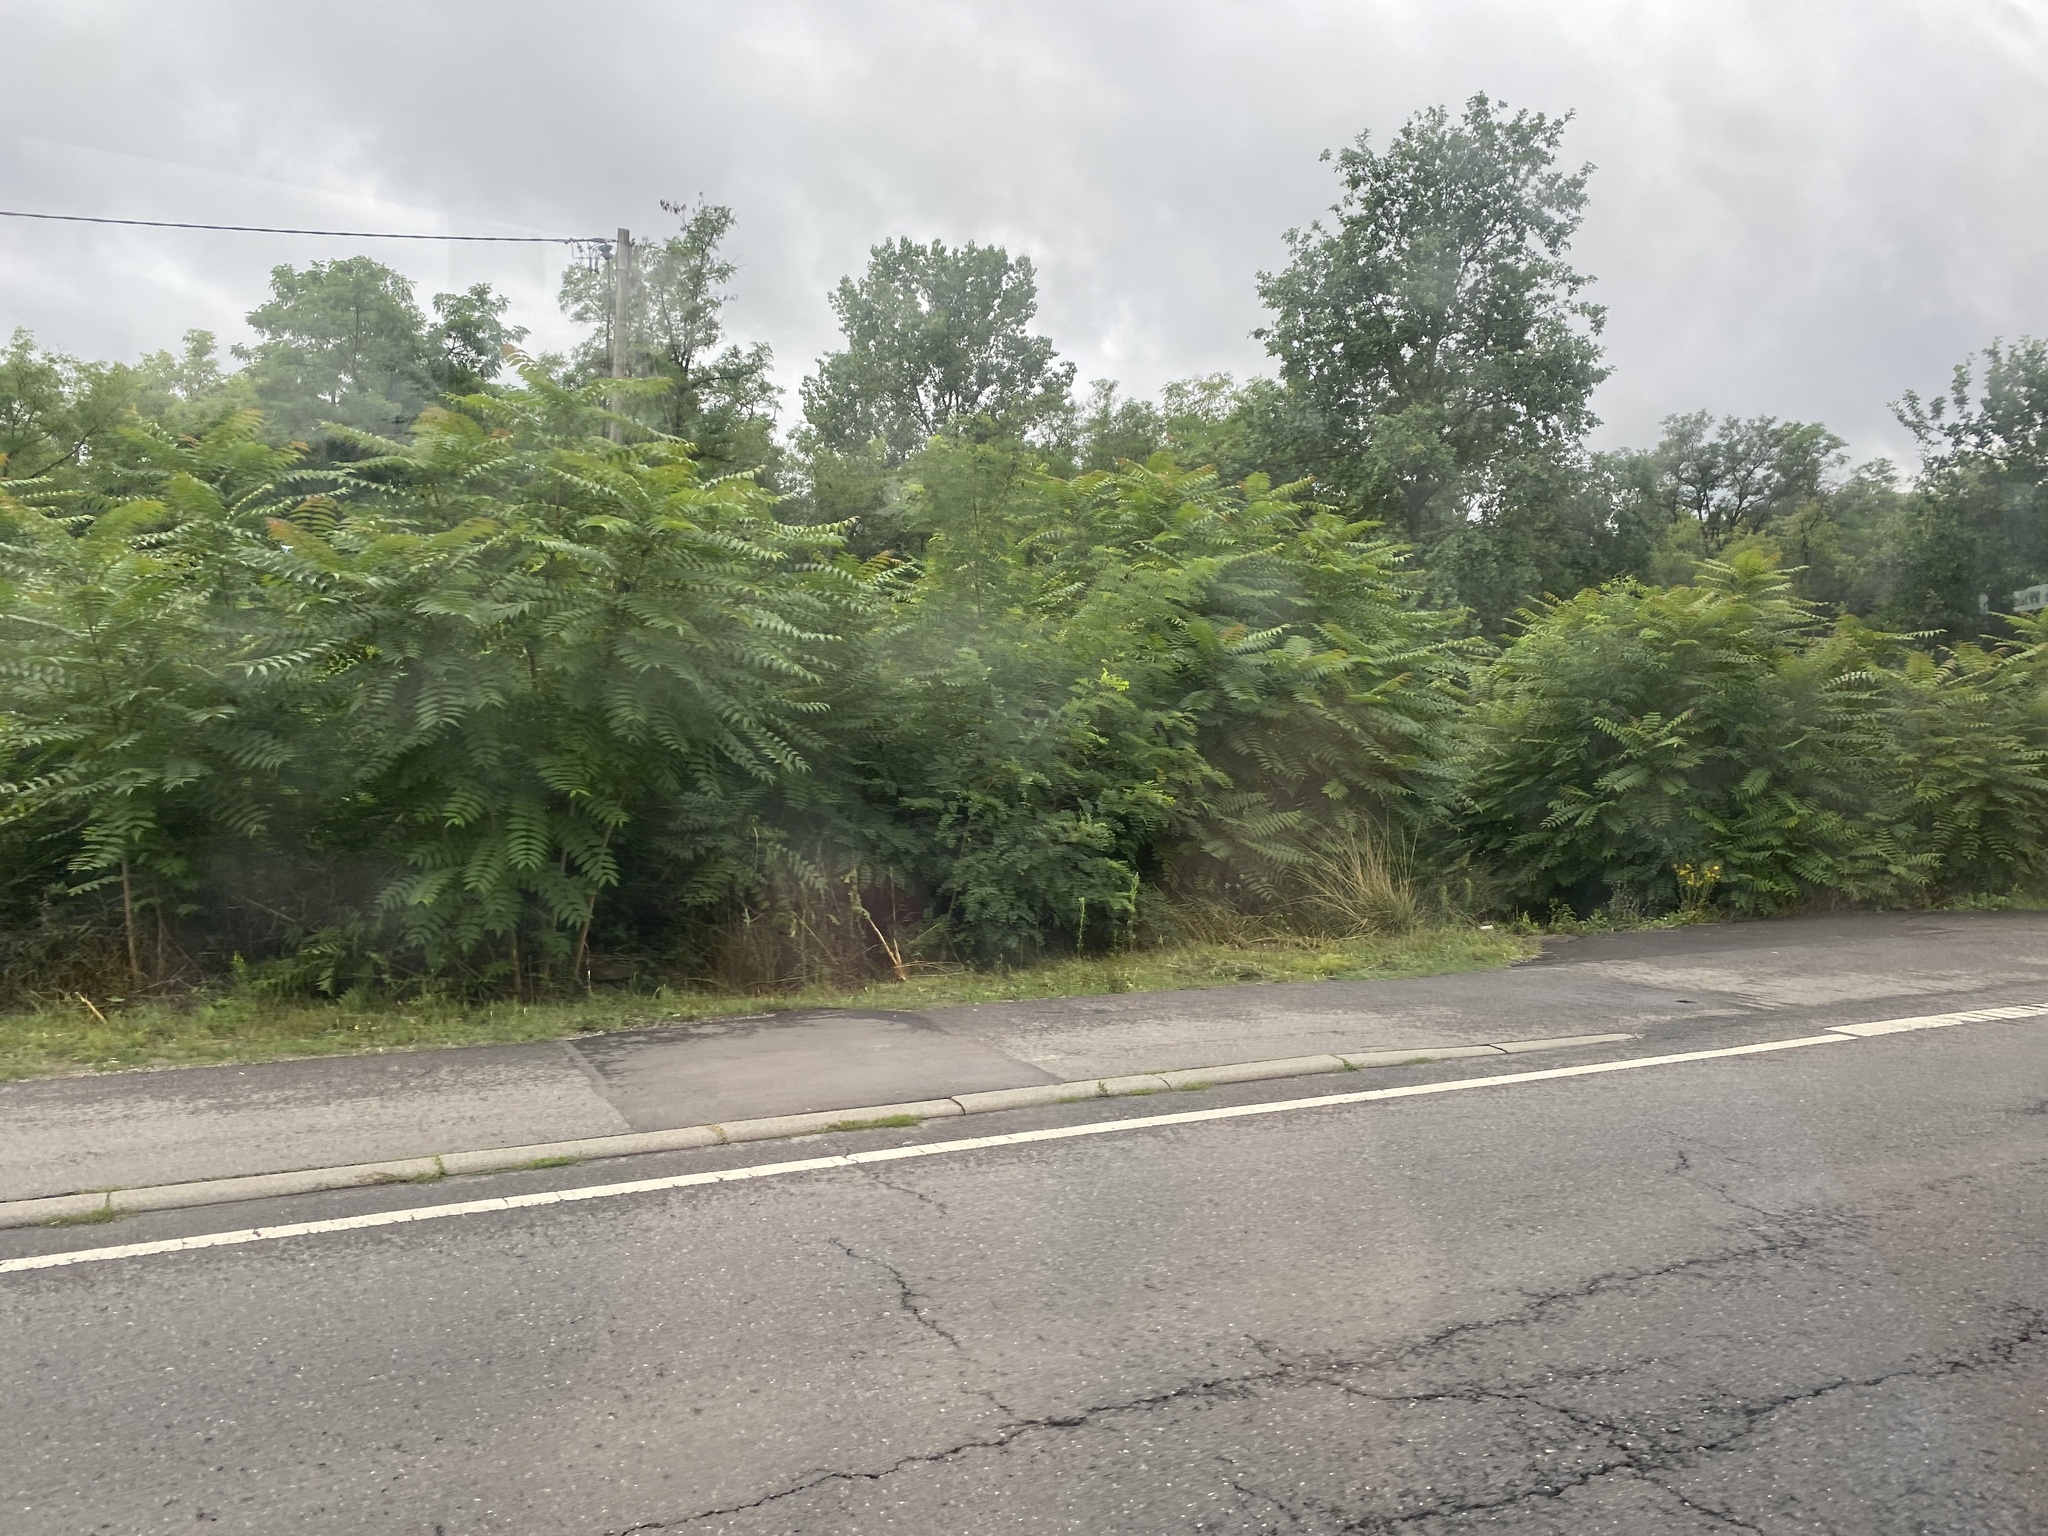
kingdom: Plantae
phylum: Tracheophyta
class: Magnoliopsida
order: Sapindales
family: Simaroubaceae
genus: Ailanthus
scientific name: Ailanthus altissima
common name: Tree-of-heaven
